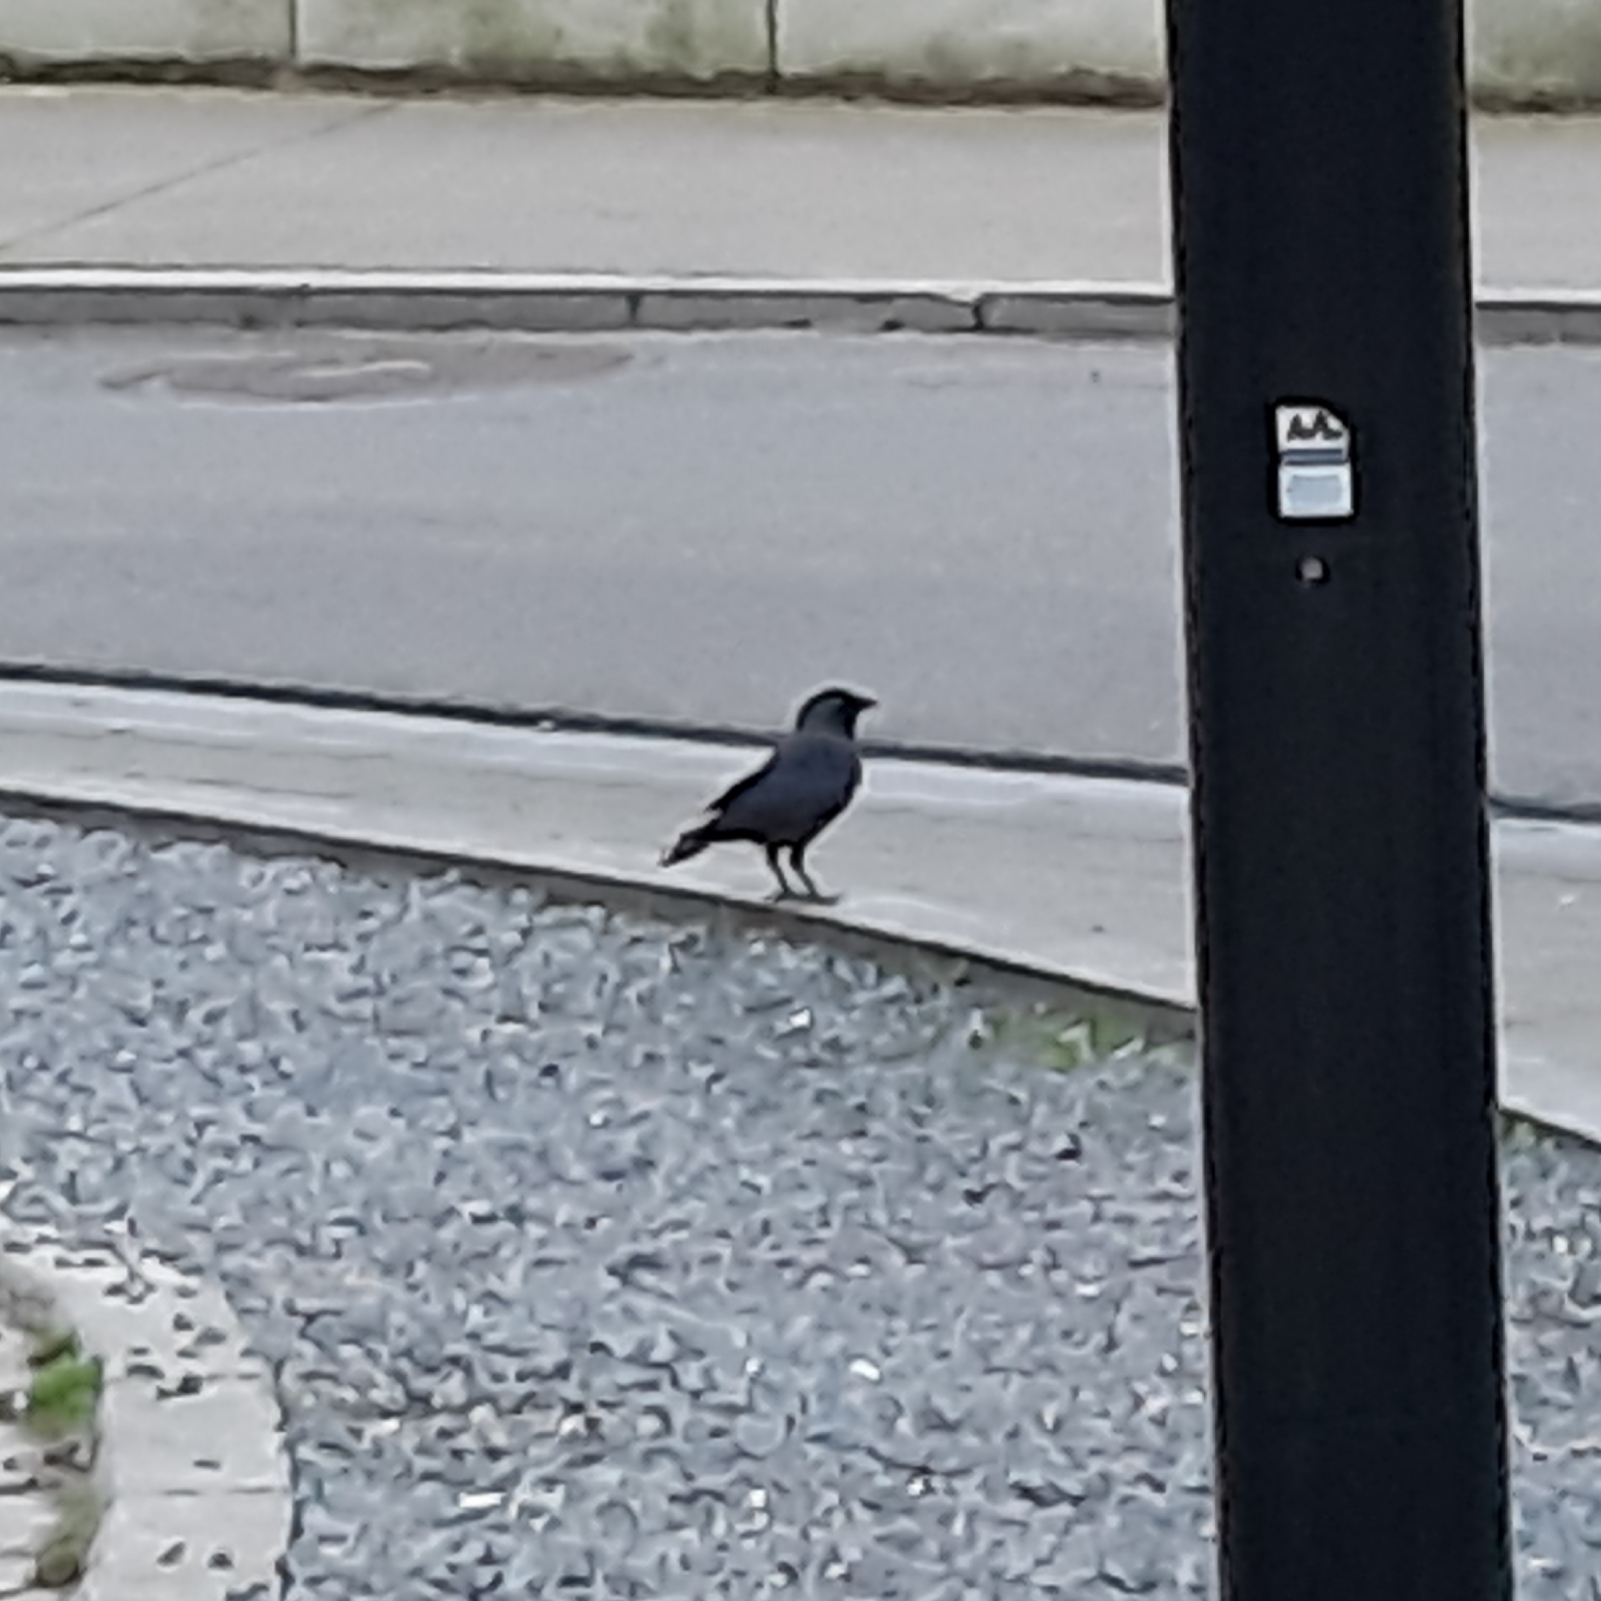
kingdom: Animalia
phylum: Chordata
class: Aves
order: Passeriformes
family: Corvidae
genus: Coloeus
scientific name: Coloeus monedula
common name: Western jackdaw
